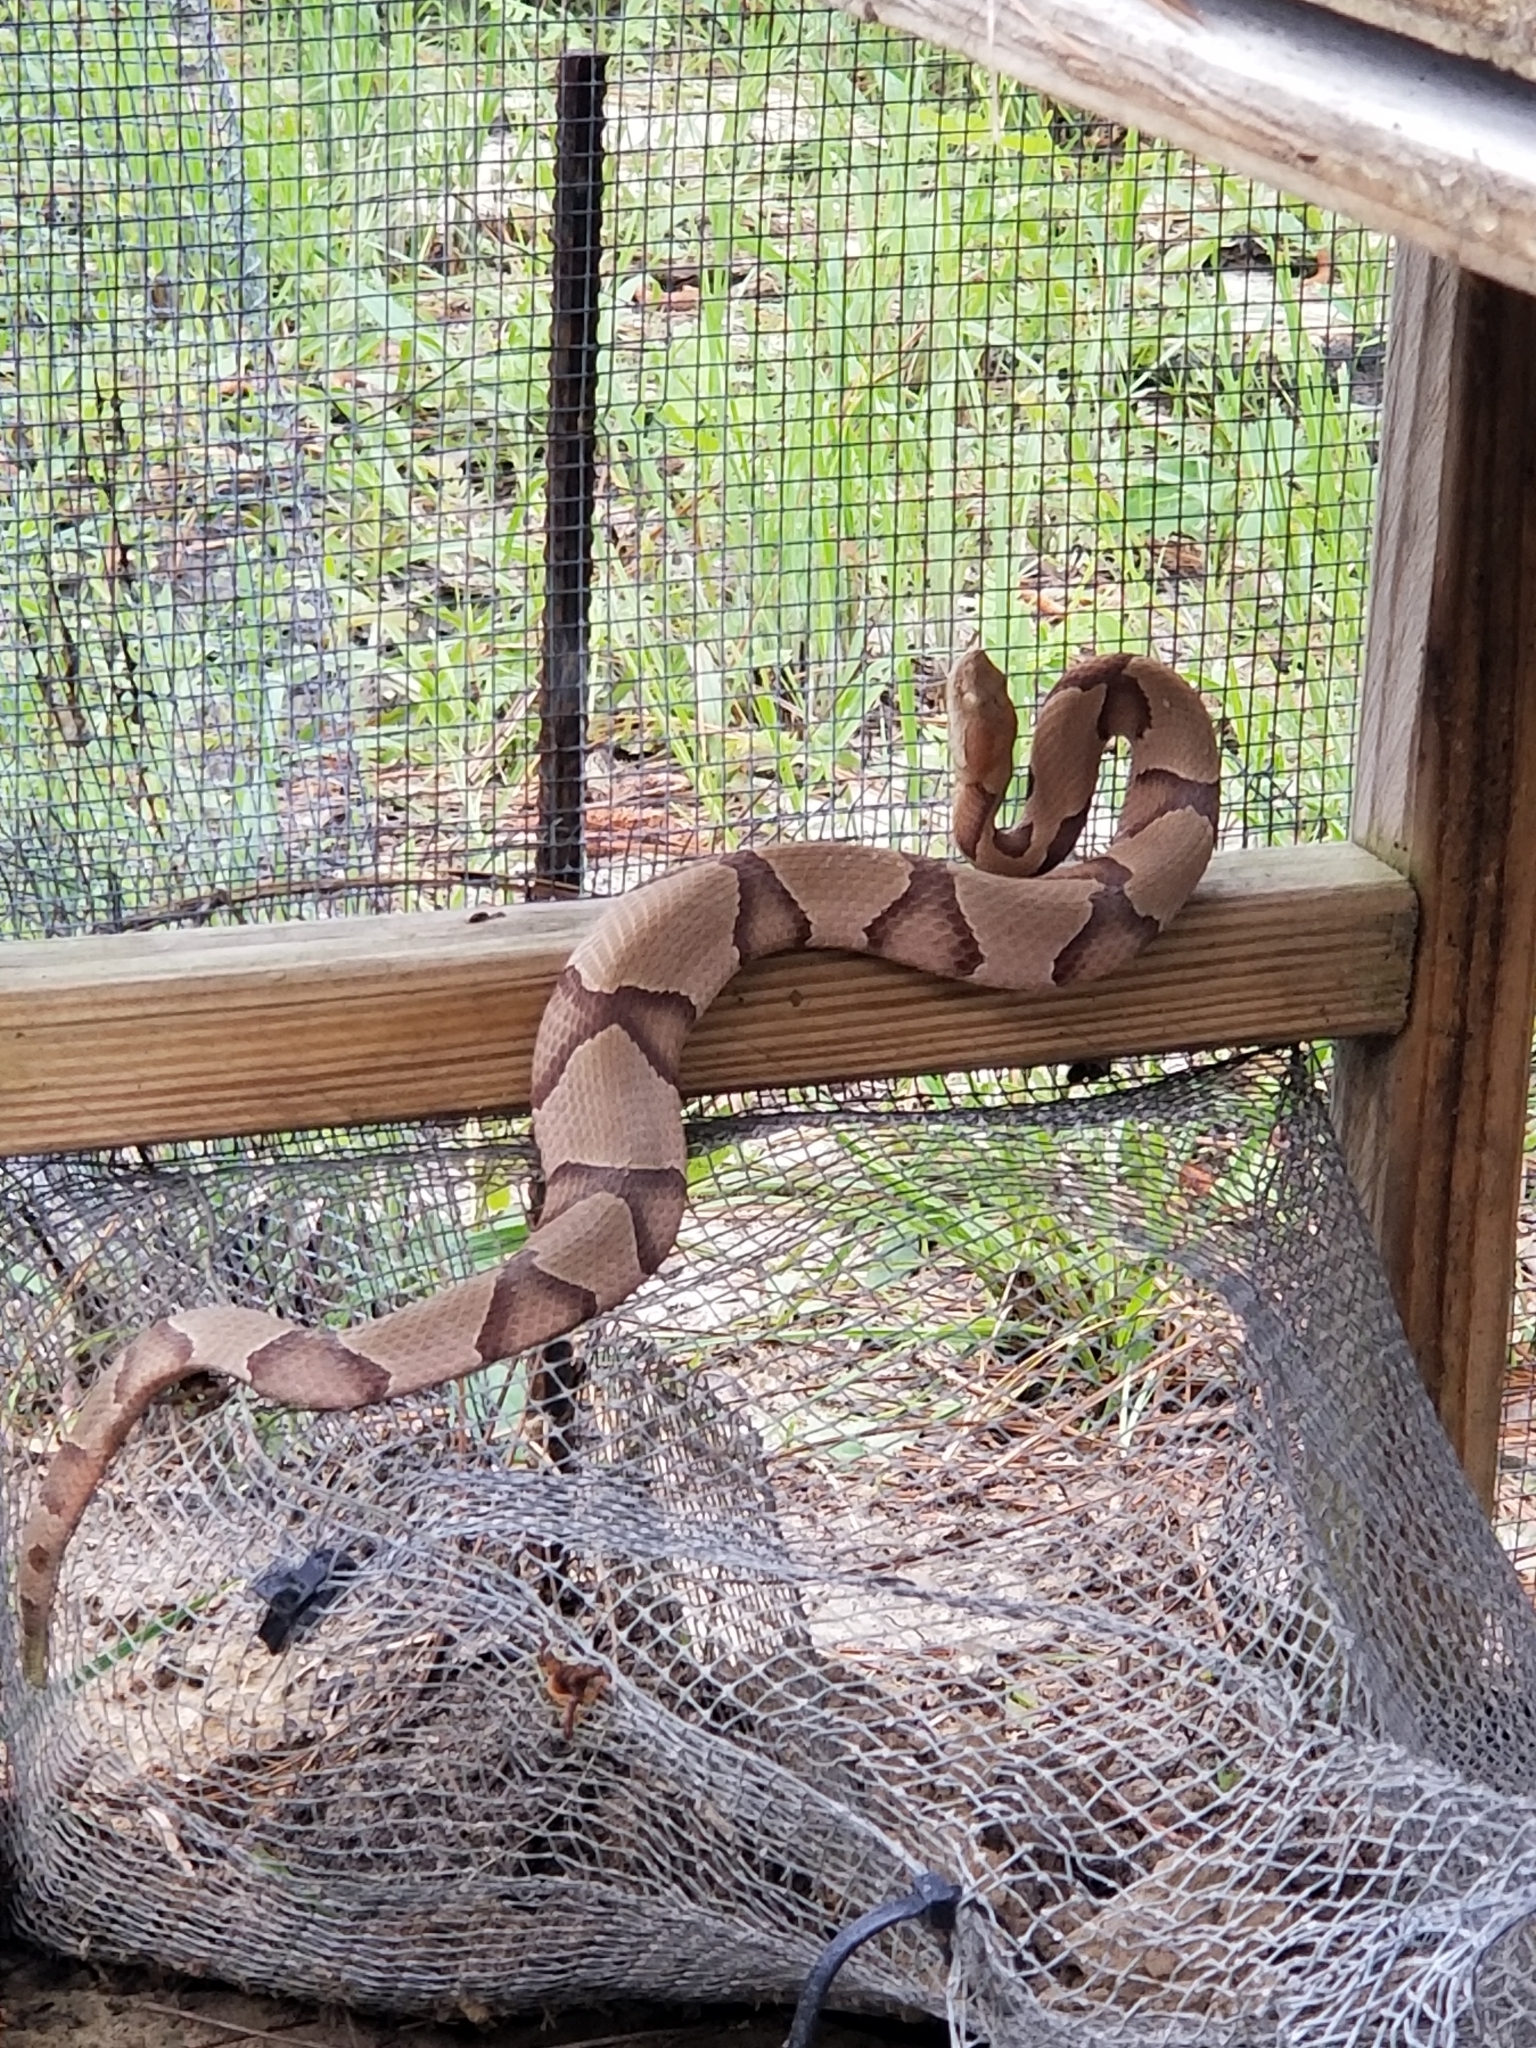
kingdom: Animalia
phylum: Chordata
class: Squamata
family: Viperidae
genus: Agkistrodon
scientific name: Agkistrodon contortrix
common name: Northern copperhead
